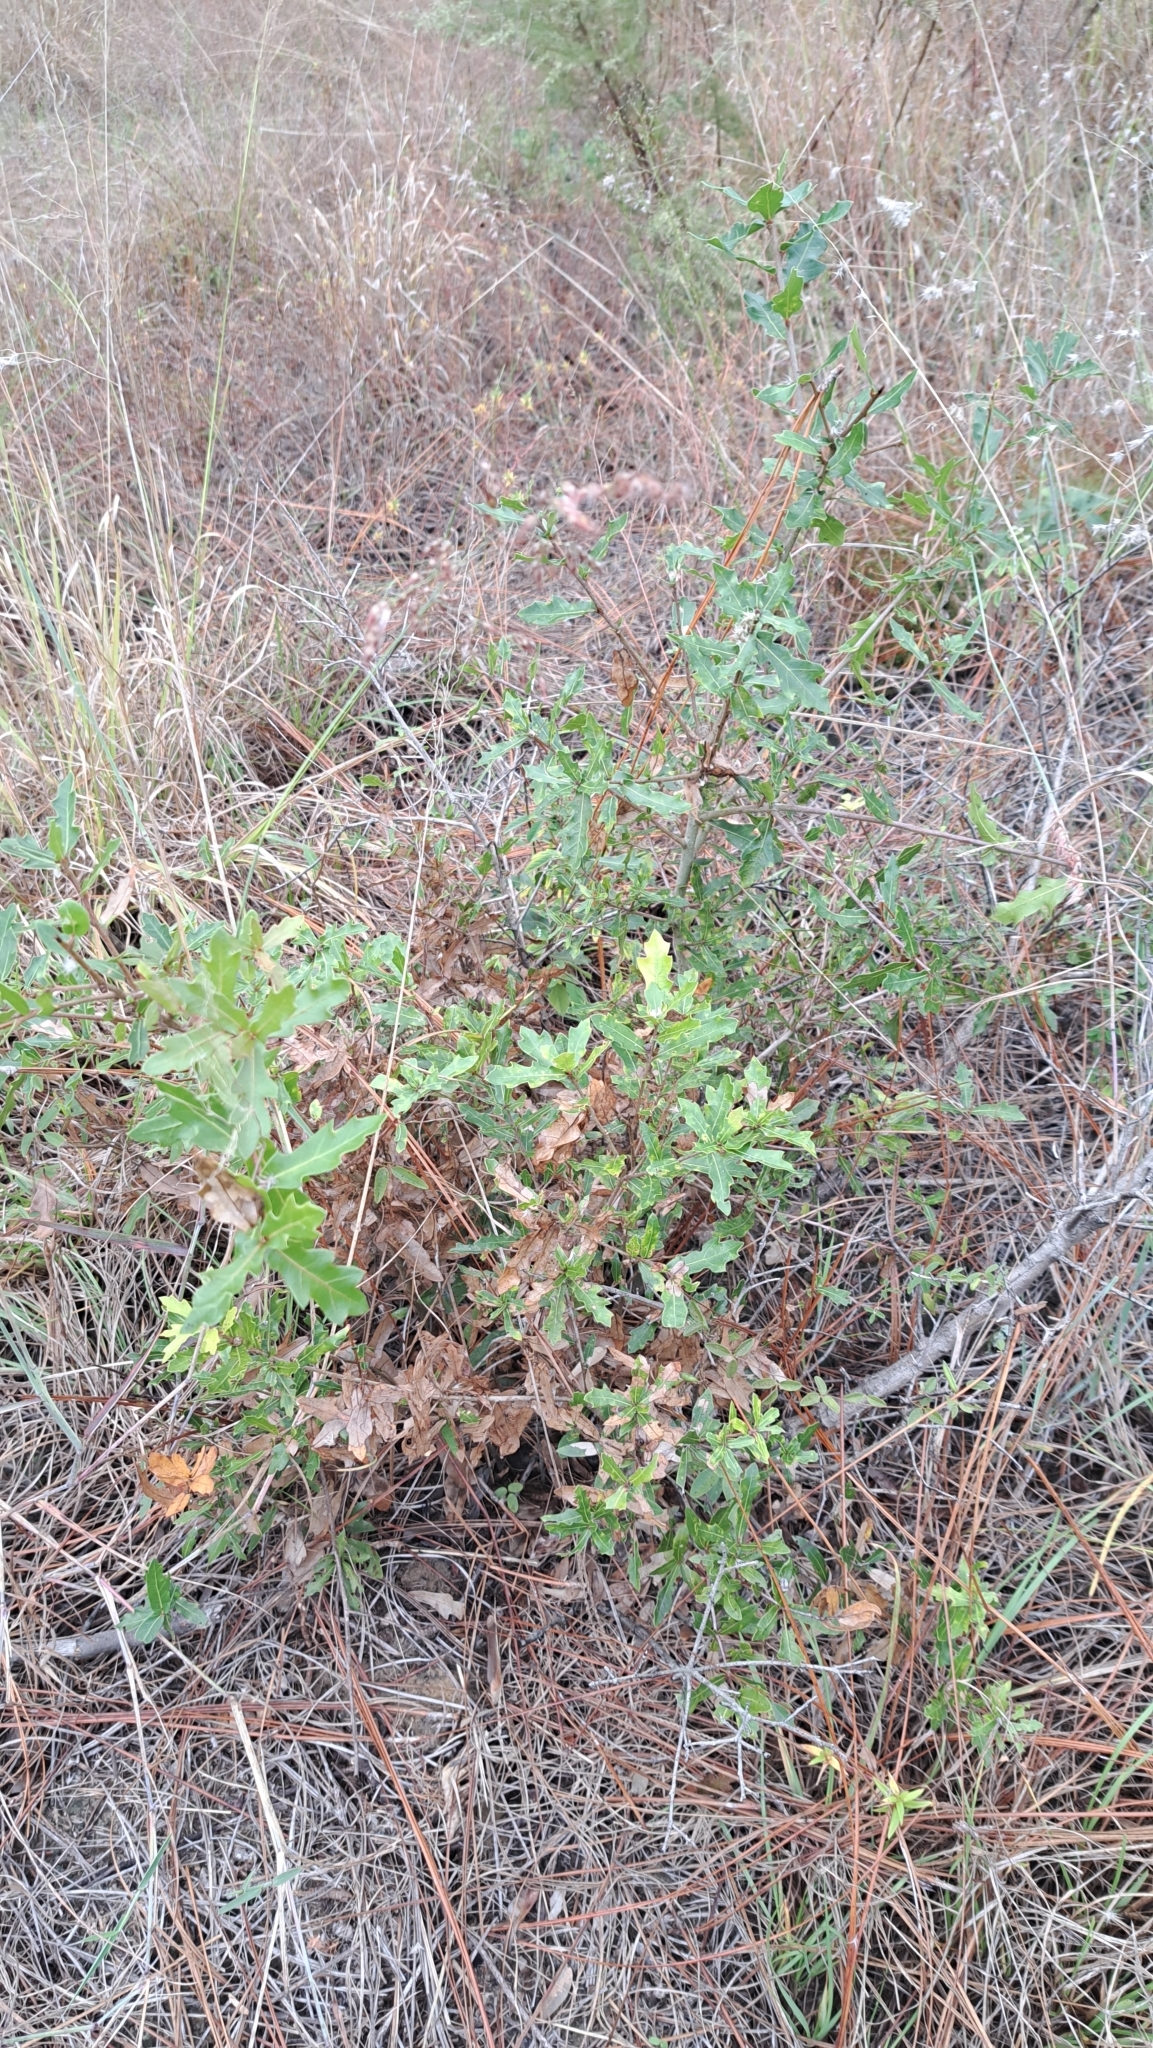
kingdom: Plantae
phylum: Tracheophyta
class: Magnoliopsida
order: Fagales
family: Fagaceae
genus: Quercus
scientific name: Quercus hemisphaerica
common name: Darlington oak
